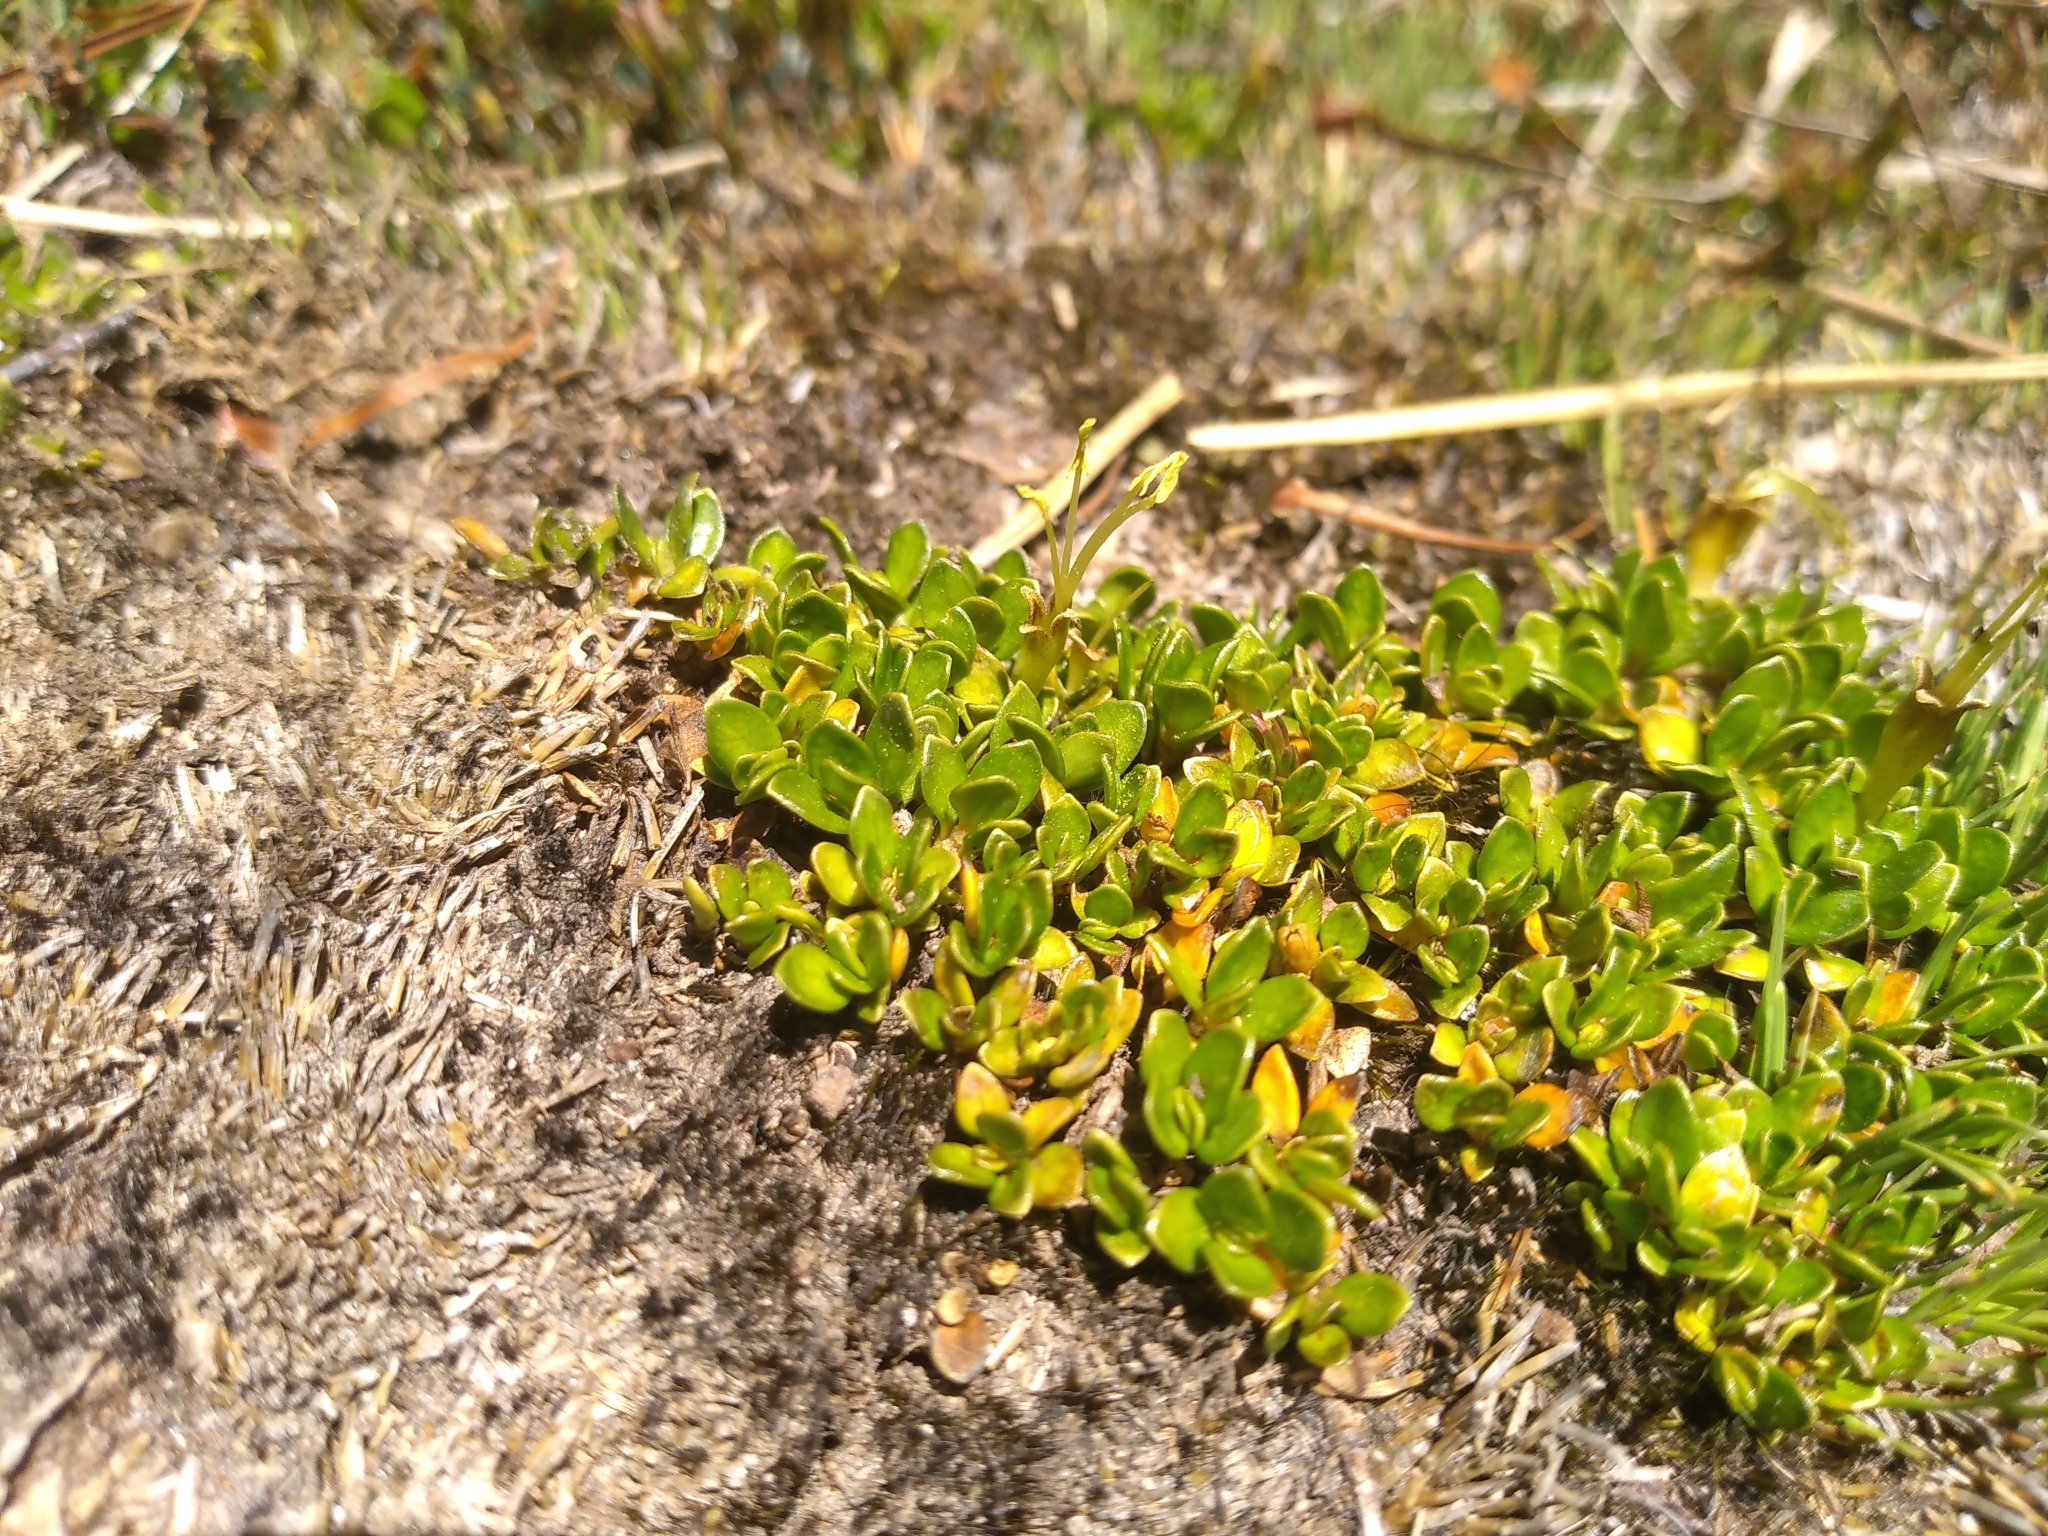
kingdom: Plantae
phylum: Tracheophyta
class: Magnoliopsida
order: Gentianales
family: Rubiaceae
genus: Coprosma
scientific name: Coprosma perpusilla
